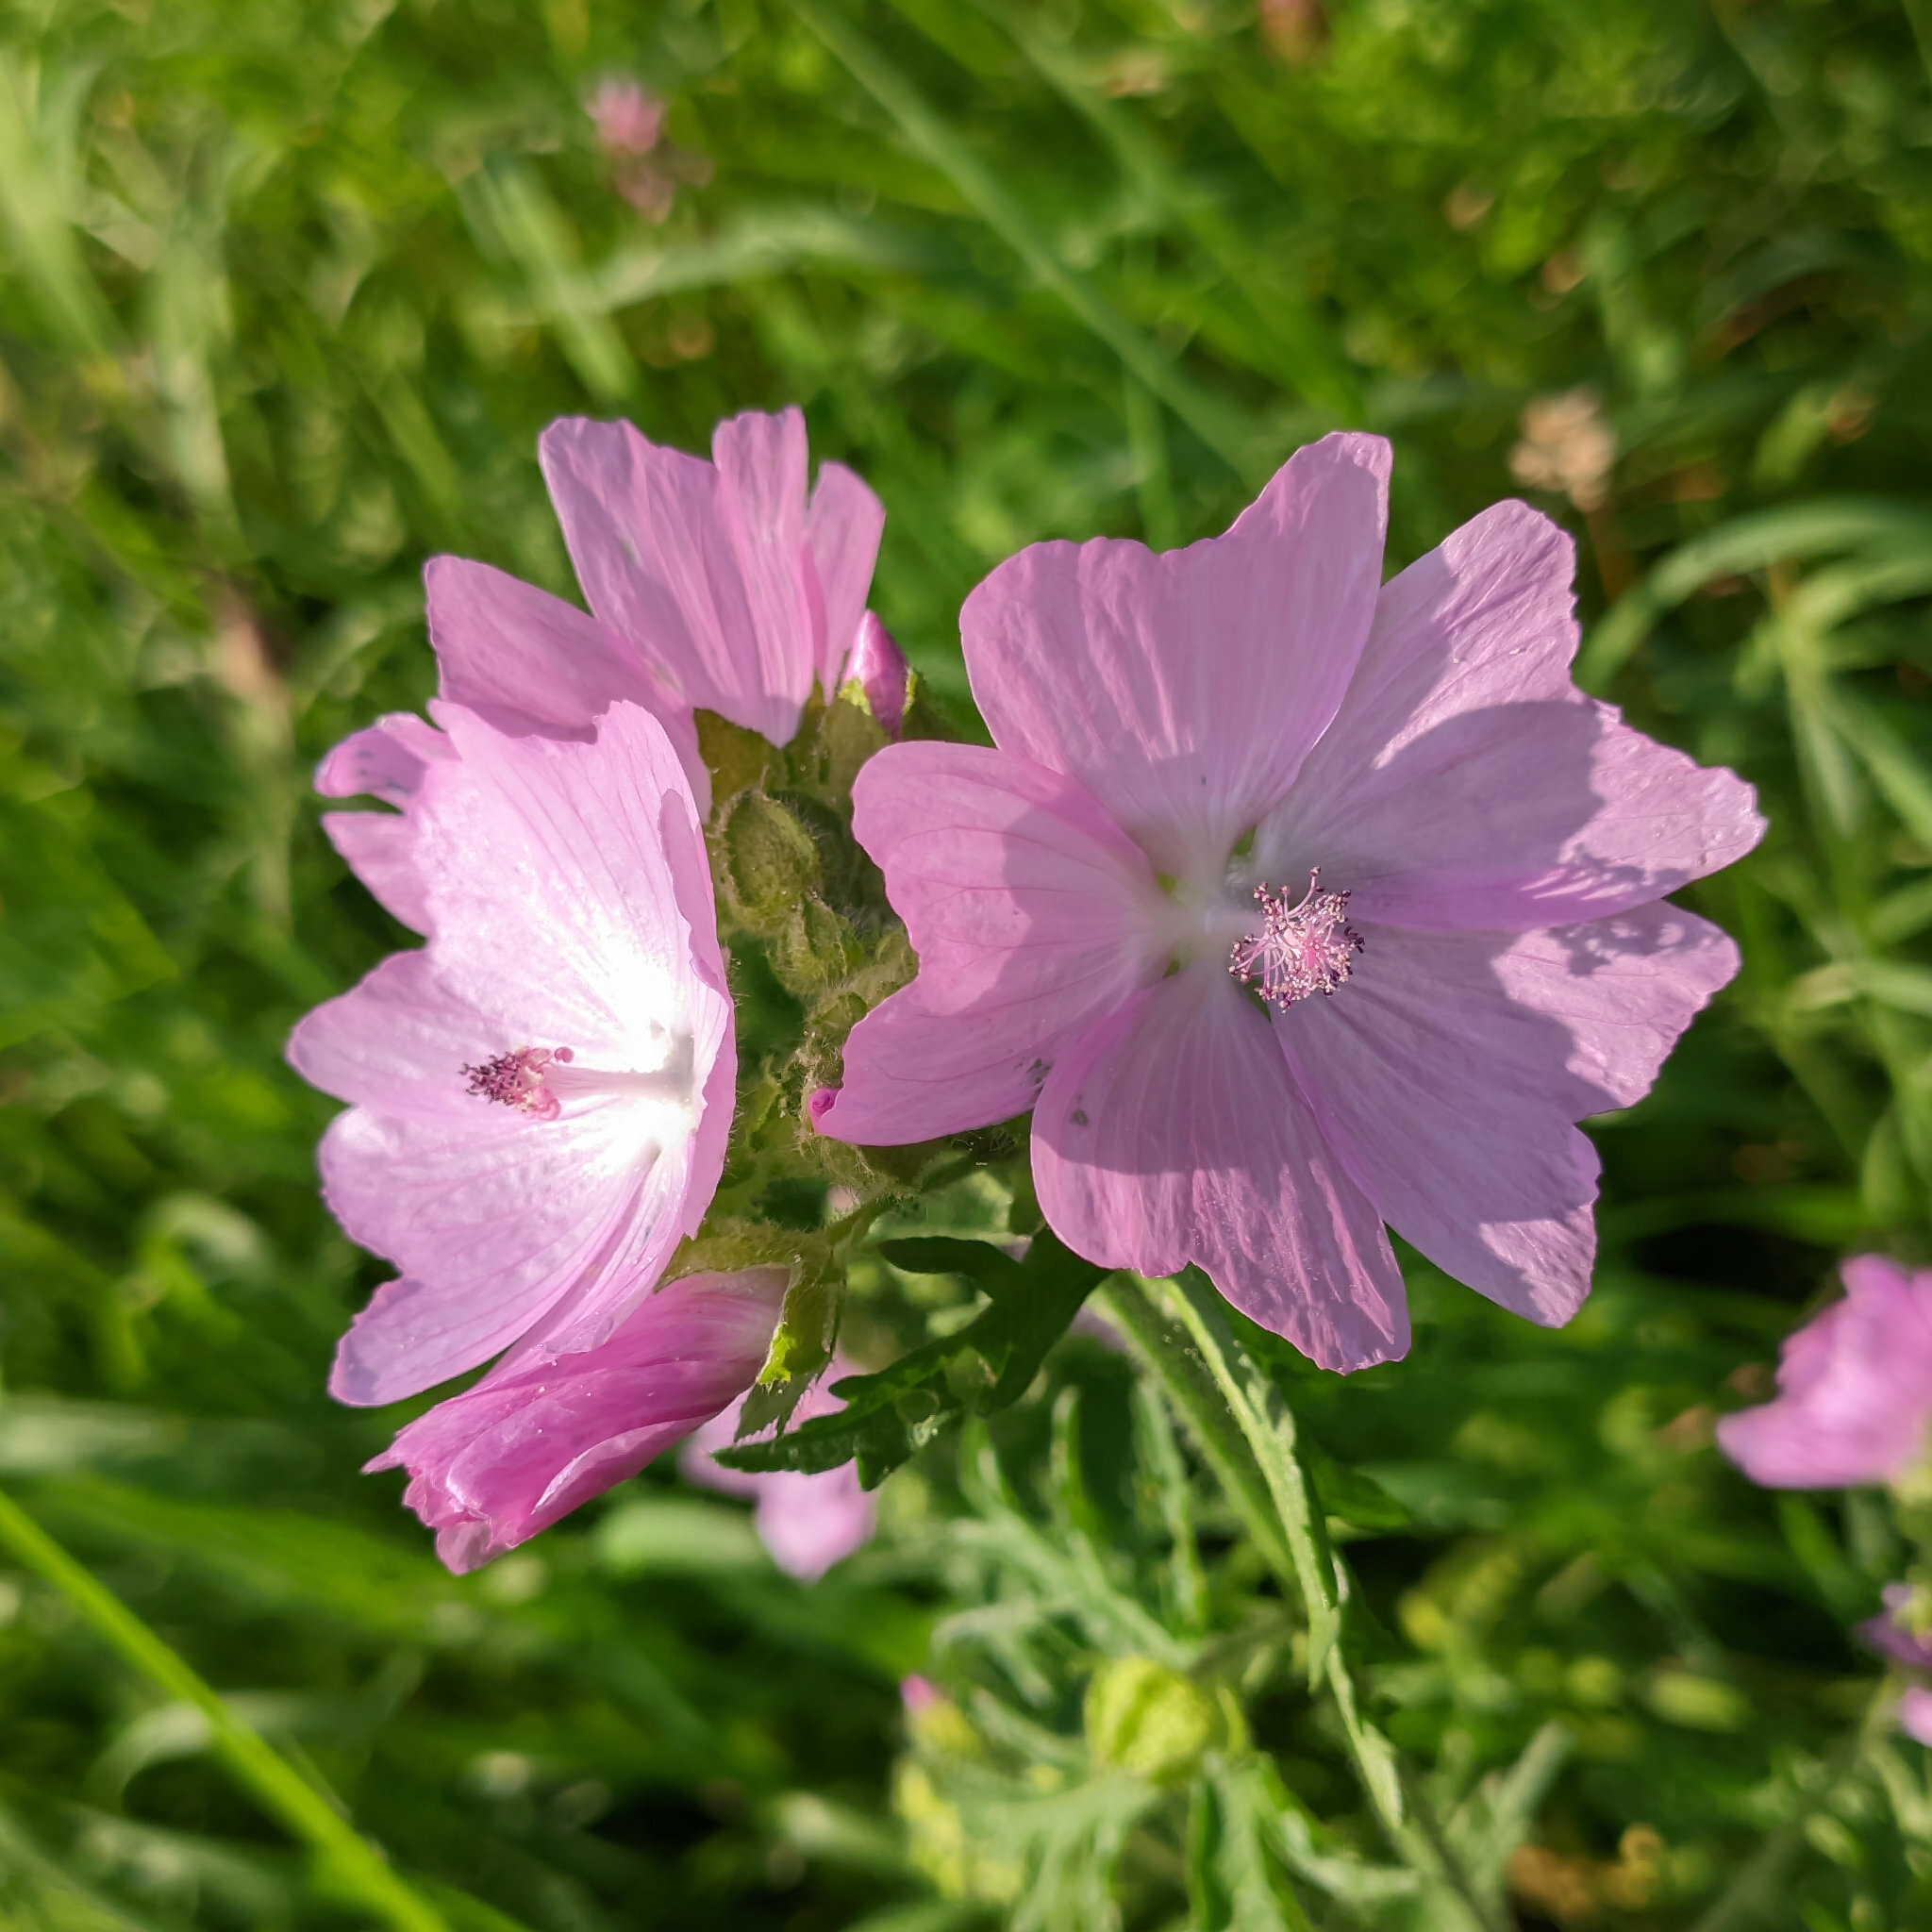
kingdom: Plantae
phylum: Tracheophyta
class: Magnoliopsida
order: Malvales
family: Malvaceae
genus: Malva
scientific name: Malva moschata
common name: Musk mallow
